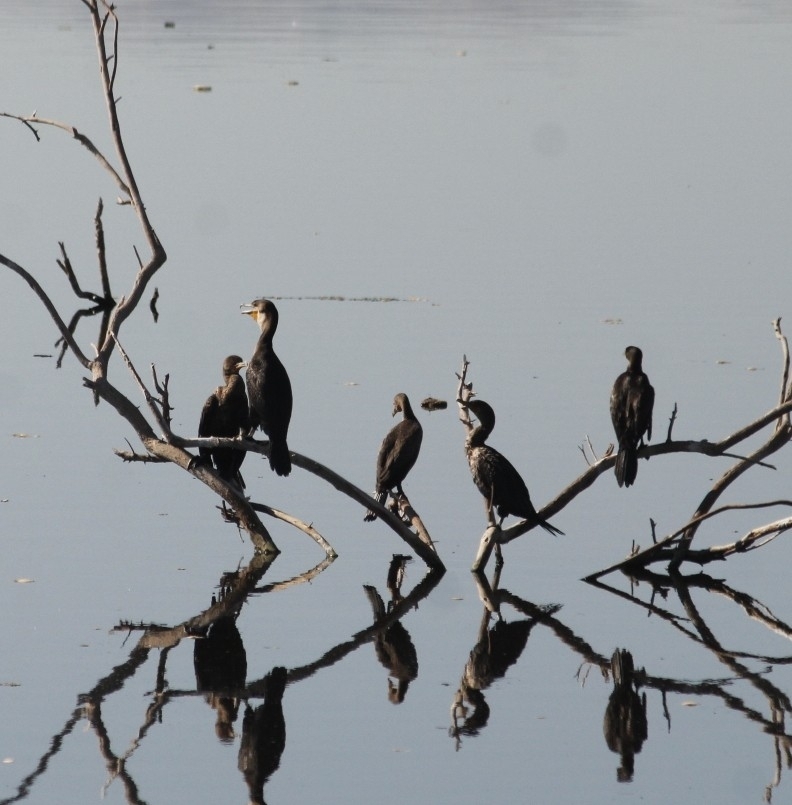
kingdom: Animalia
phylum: Chordata
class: Aves
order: Suliformes
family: Phalacrocoracidae
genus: Phalacrocorax
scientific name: Phalacrocorax auritus
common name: Double-crested cormorant
